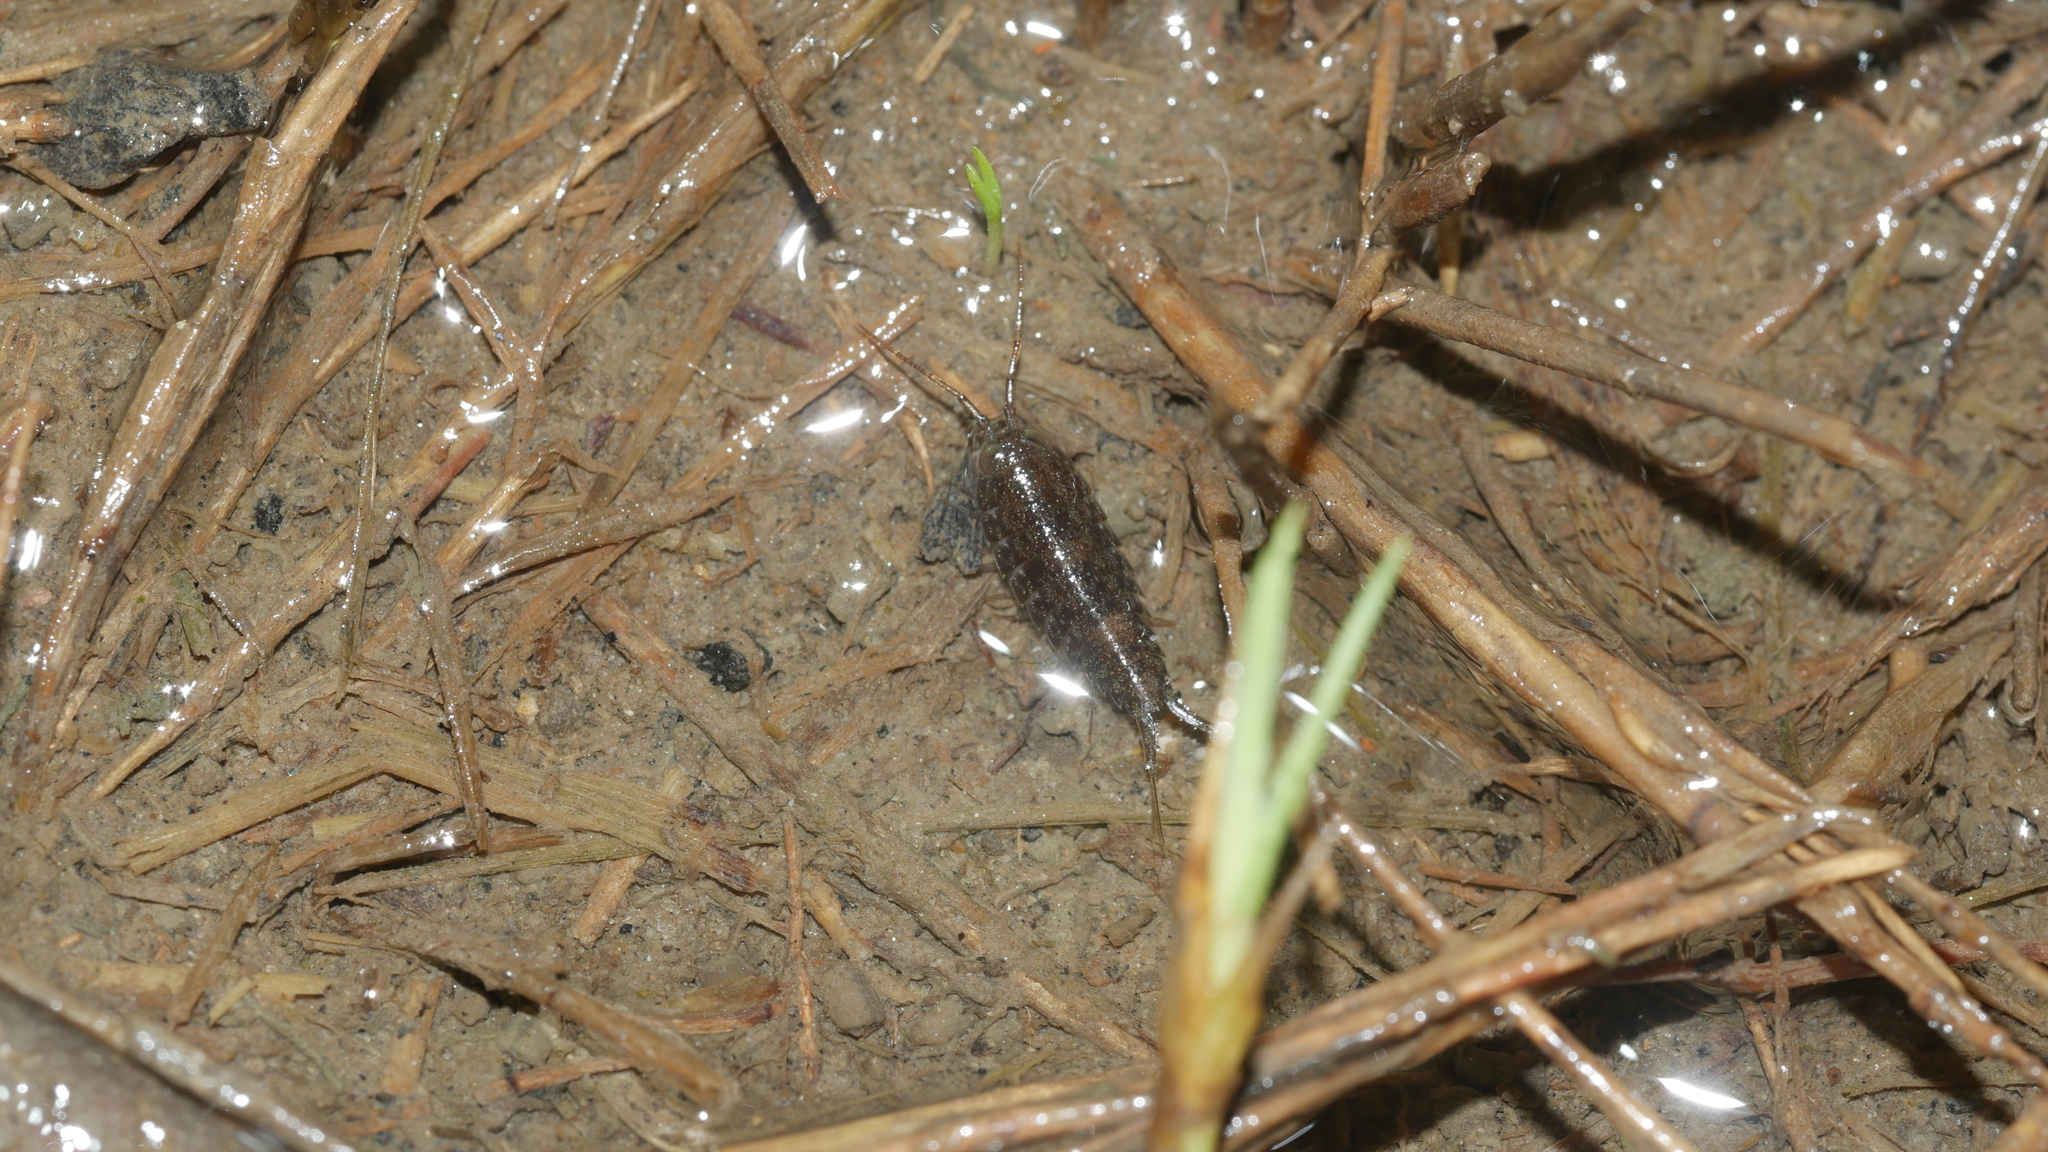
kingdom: Animalia
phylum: Arthropoda
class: Malacostraca
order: Isopoda
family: Ligiidae
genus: Ligia
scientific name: Ligia exotica
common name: Wharf roach
